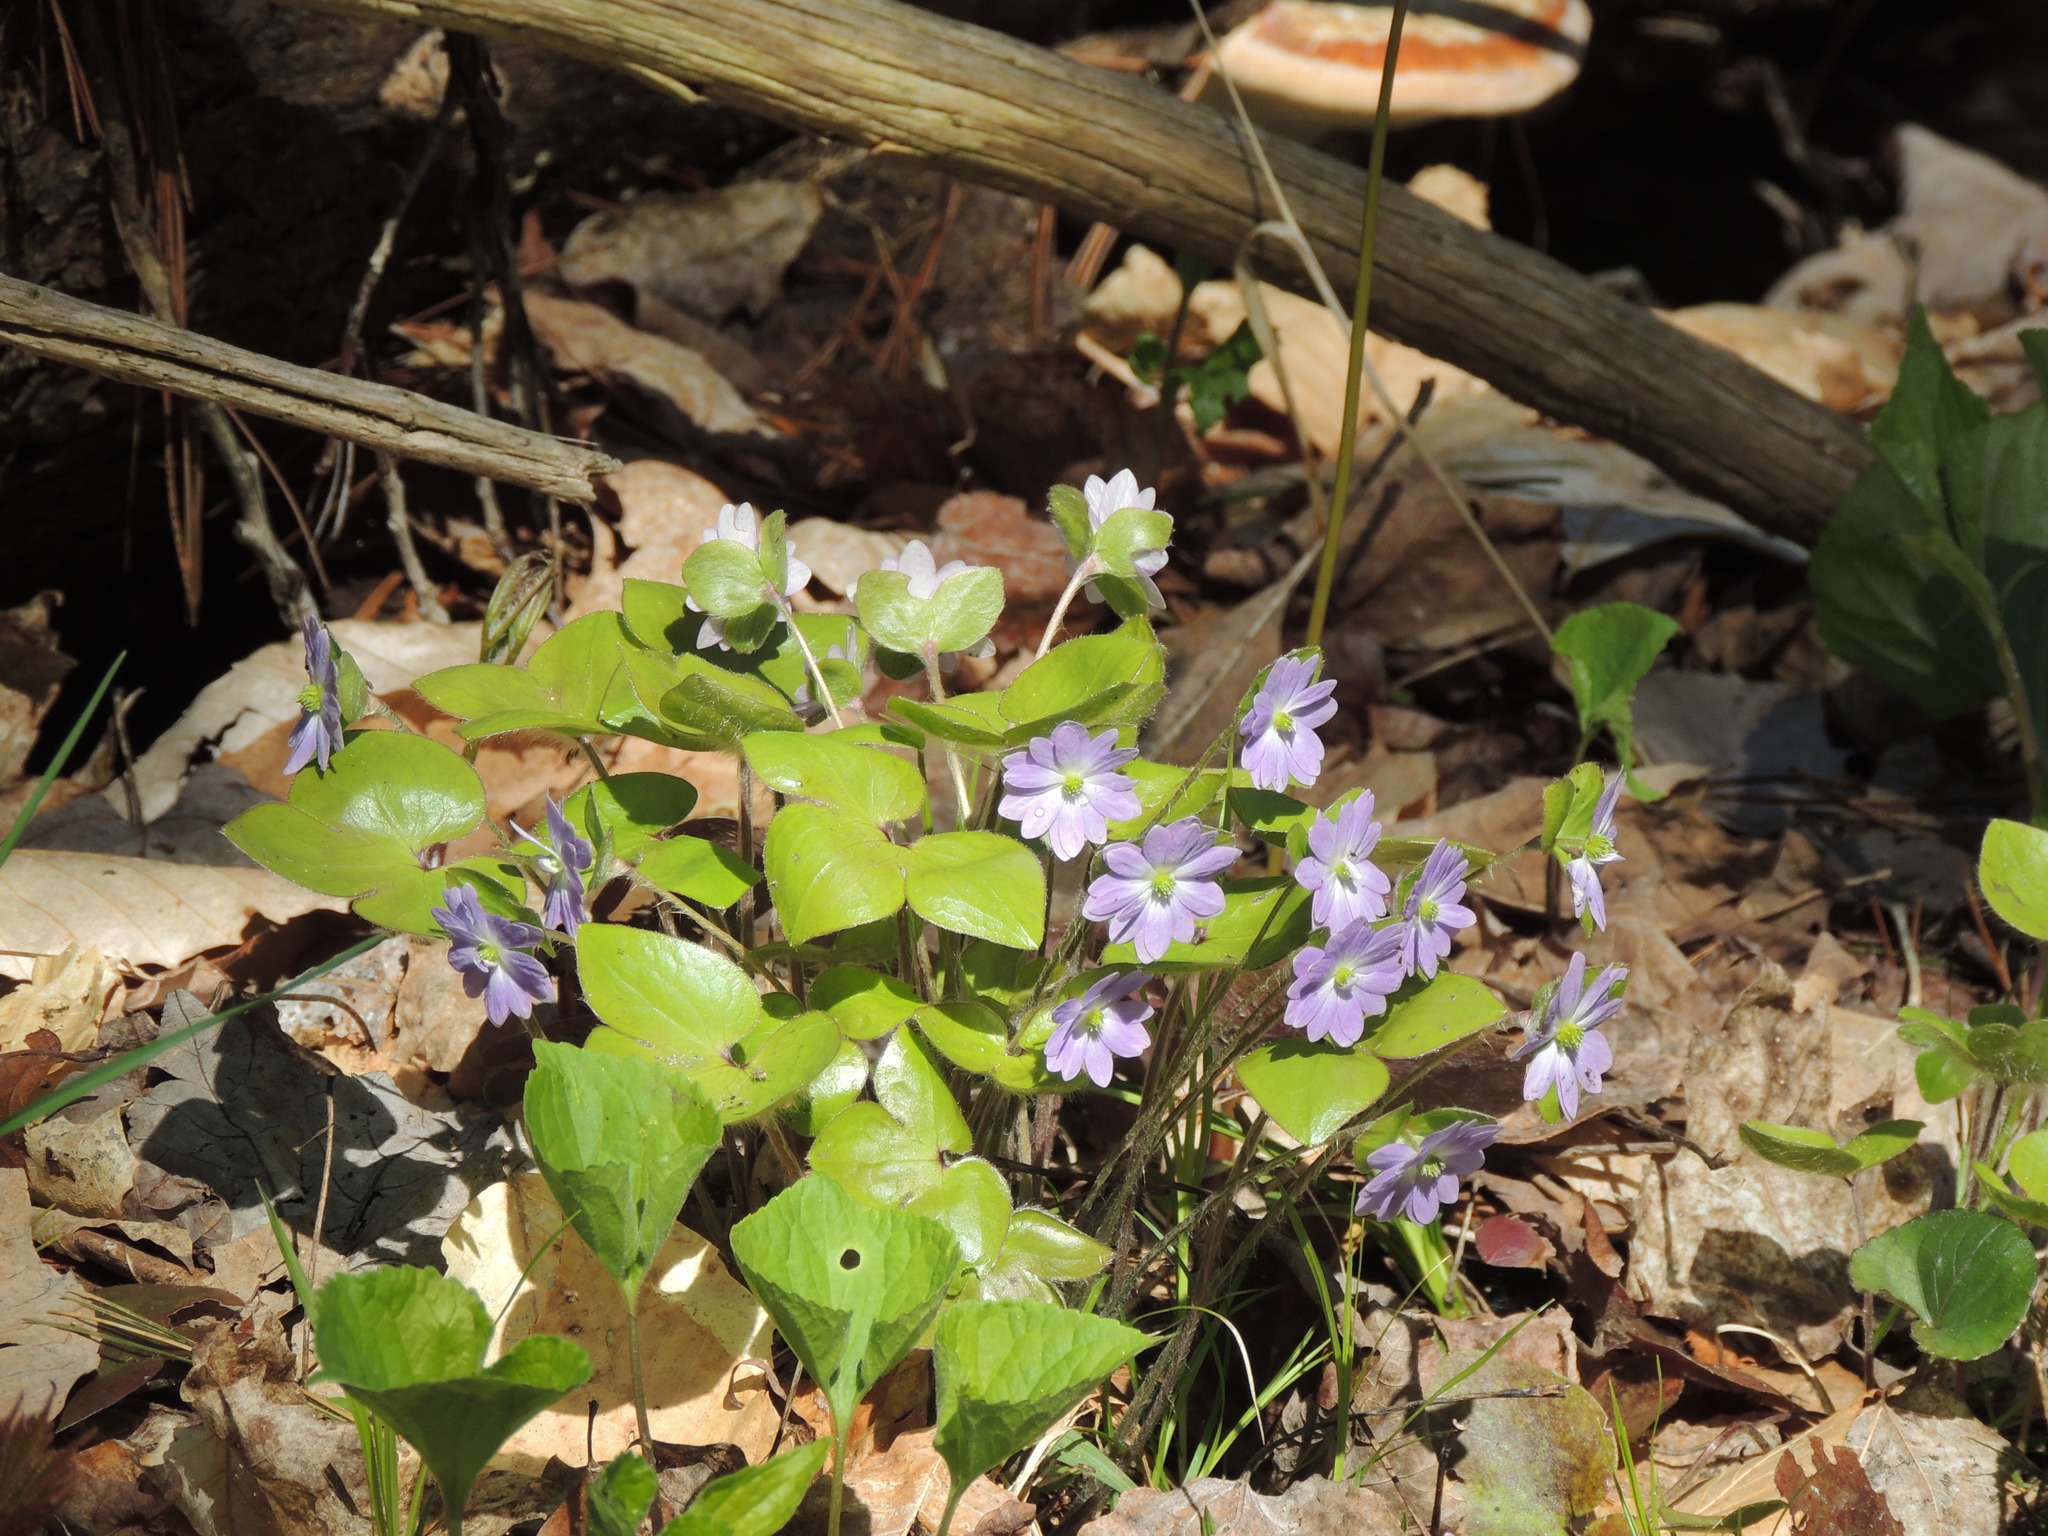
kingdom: Plantae
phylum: Tracheophyta
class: Magnoliopsida
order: Ranunculales
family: Ranunculaceae
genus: Hepatica
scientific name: Hepatica acutiloba
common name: Sharp-lobed hepatica
